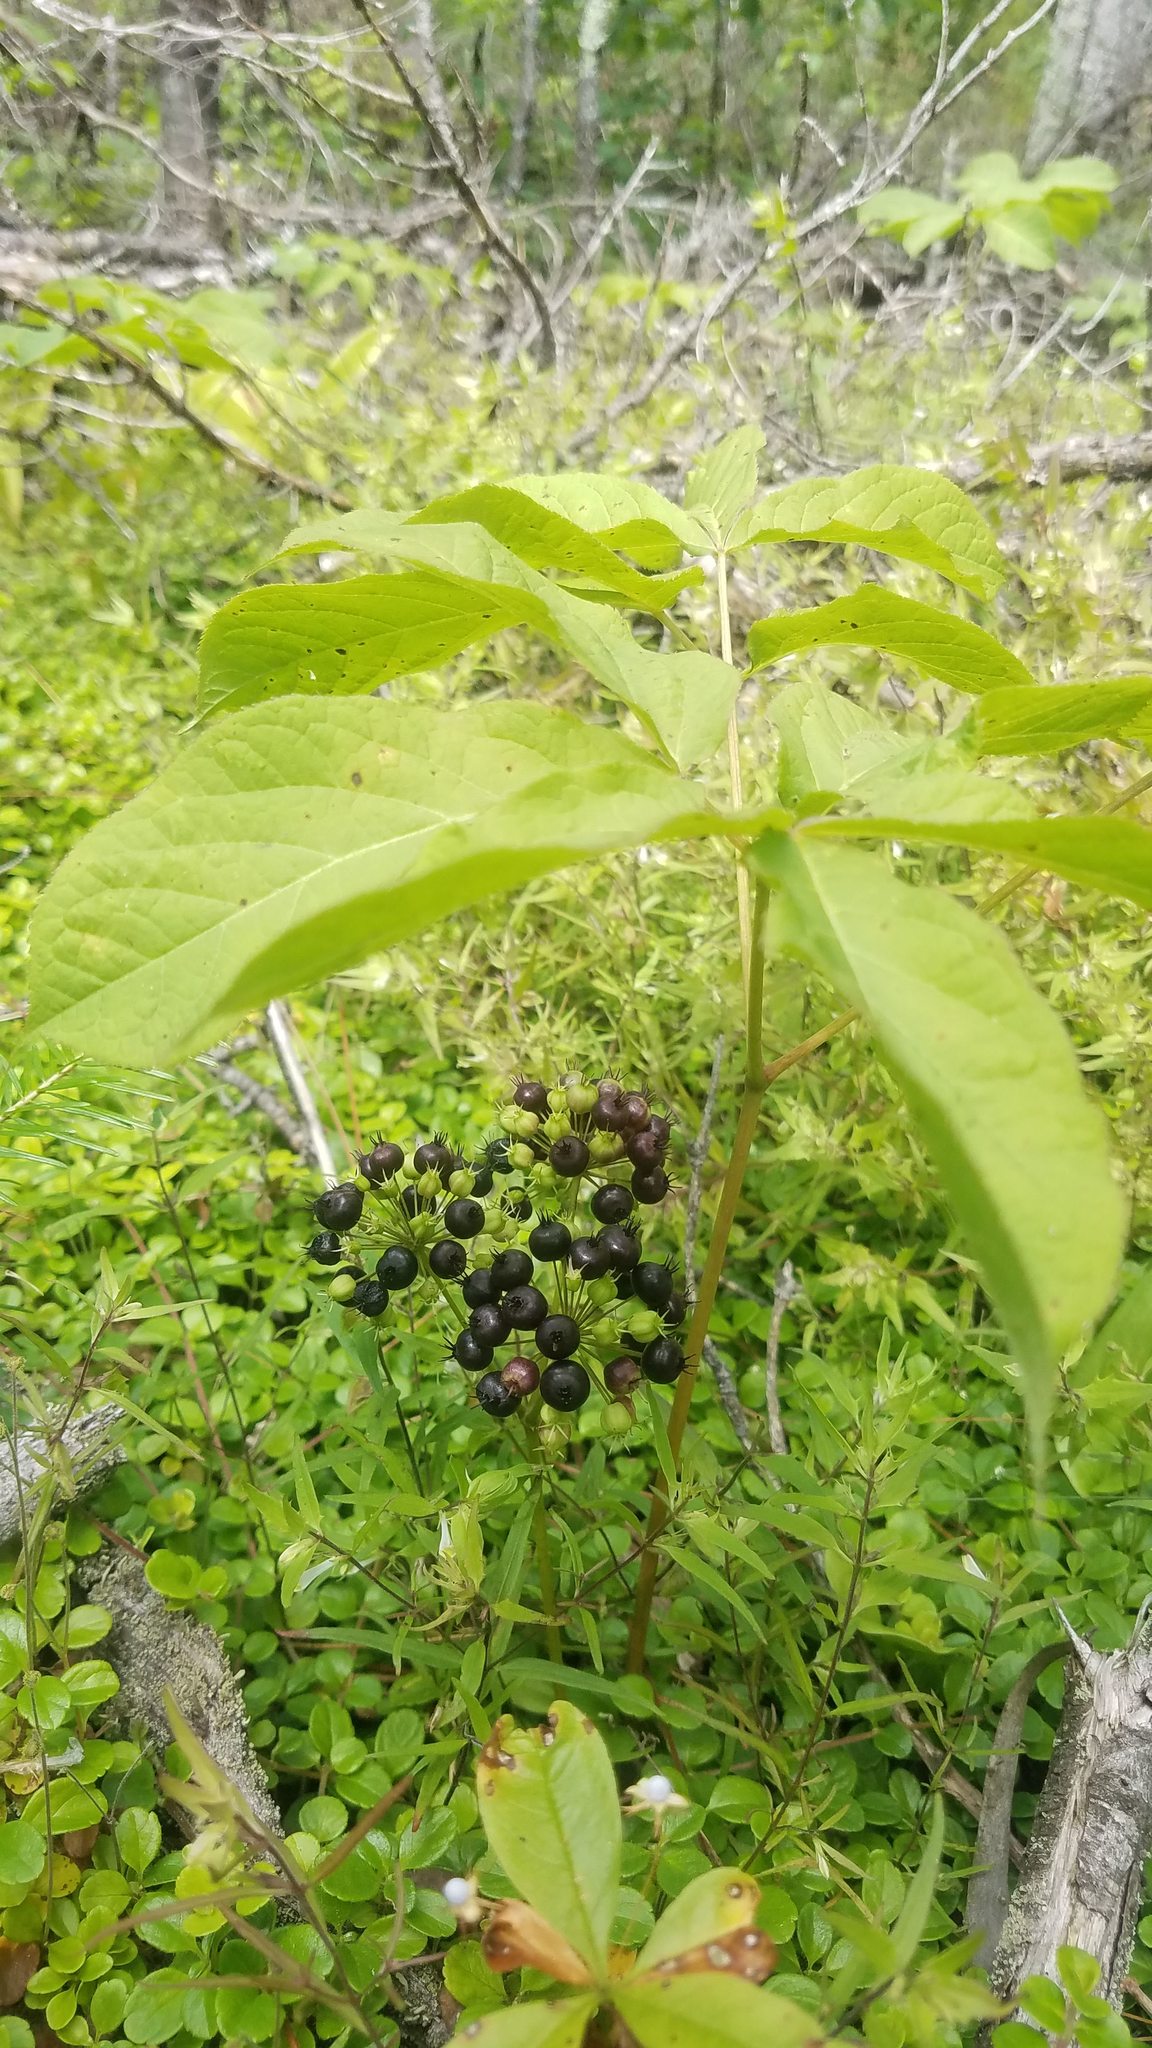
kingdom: Plantae
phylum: Tracheophyta
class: Magnoliopsida
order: Apiales
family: Araliaceae
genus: Aralia
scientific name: Aralia nudicaulis
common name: Wild sarsaparilla
